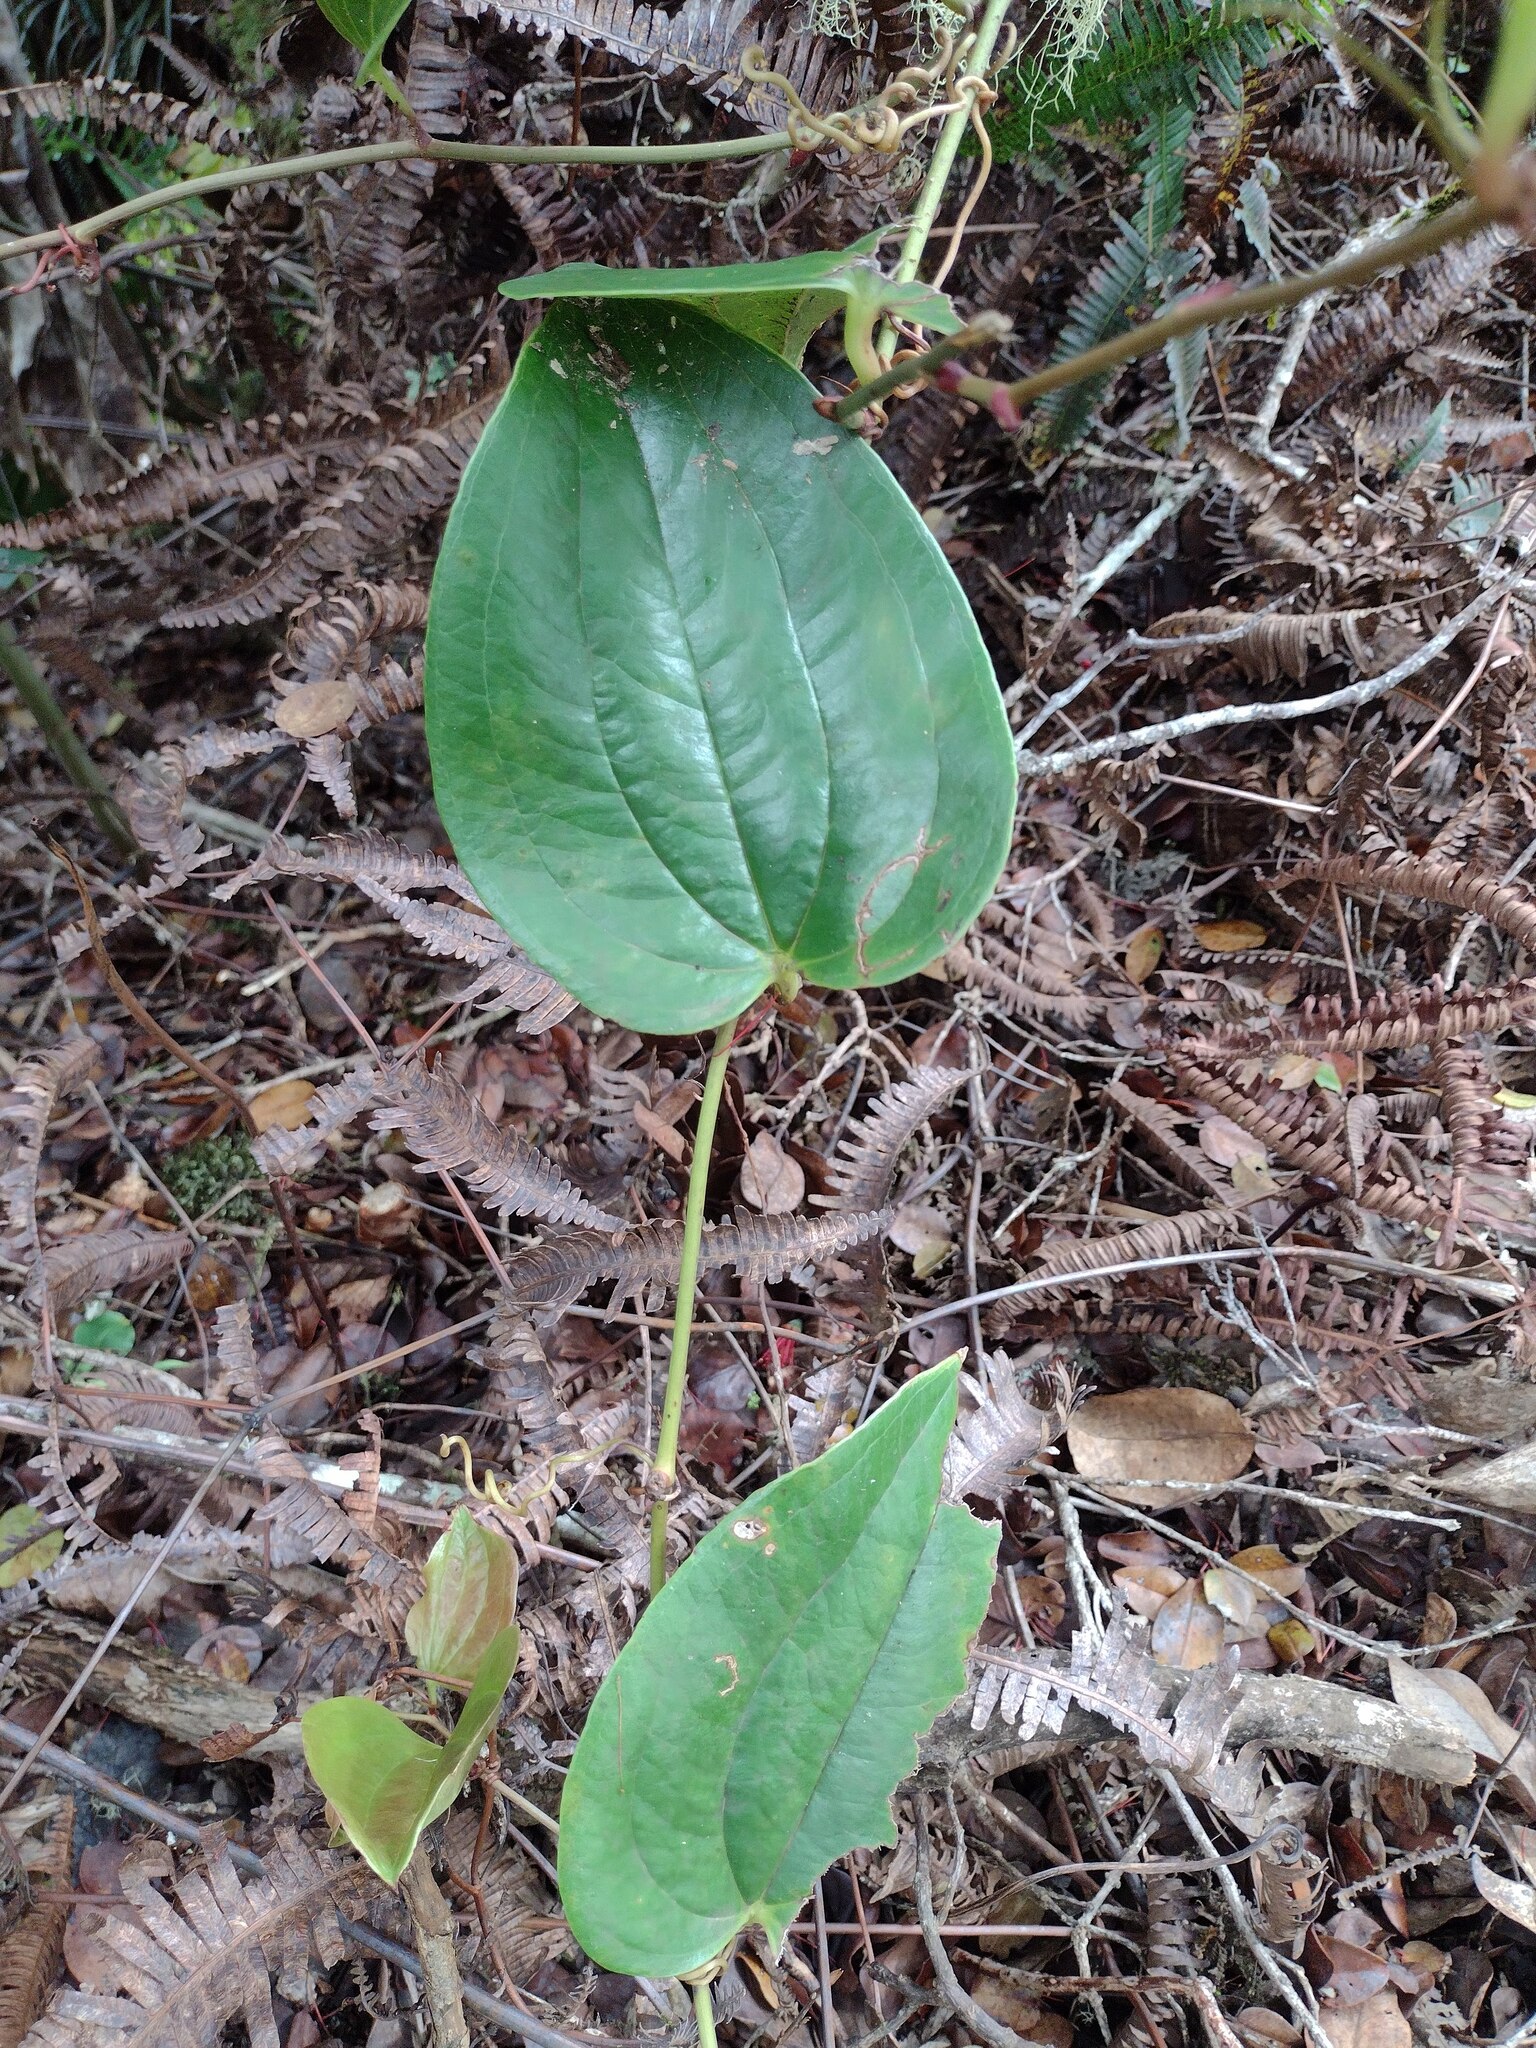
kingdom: Plantae
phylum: Tracheophyta
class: Liliopsida
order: Liliales
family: Smilacaceae
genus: Smilax
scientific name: Smilax melastomifolia
